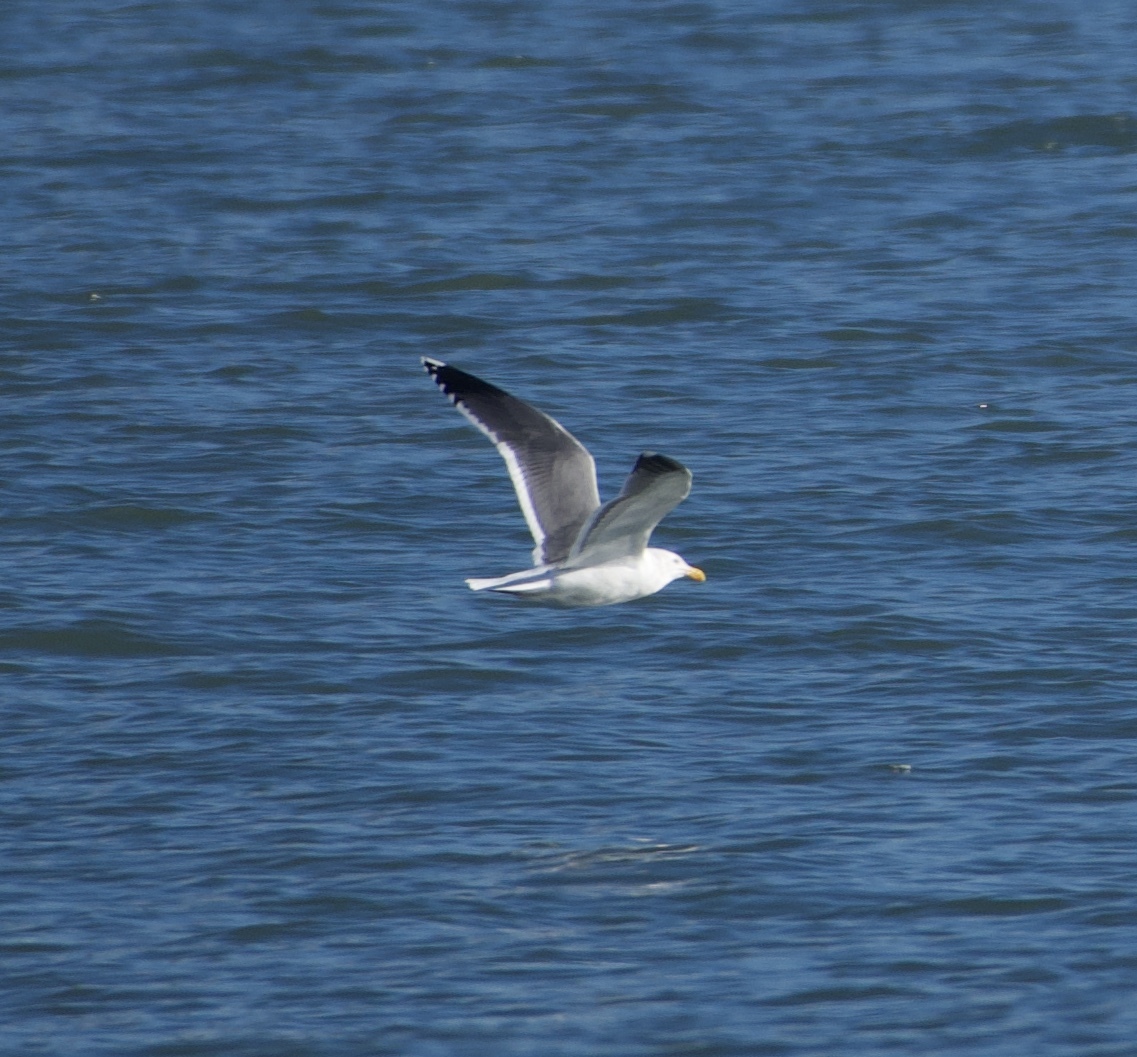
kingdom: Animalia
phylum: Chordata
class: Aves
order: Charadriiformes
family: Laridae
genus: Larus
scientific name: Larus occidentalis
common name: Western gull
